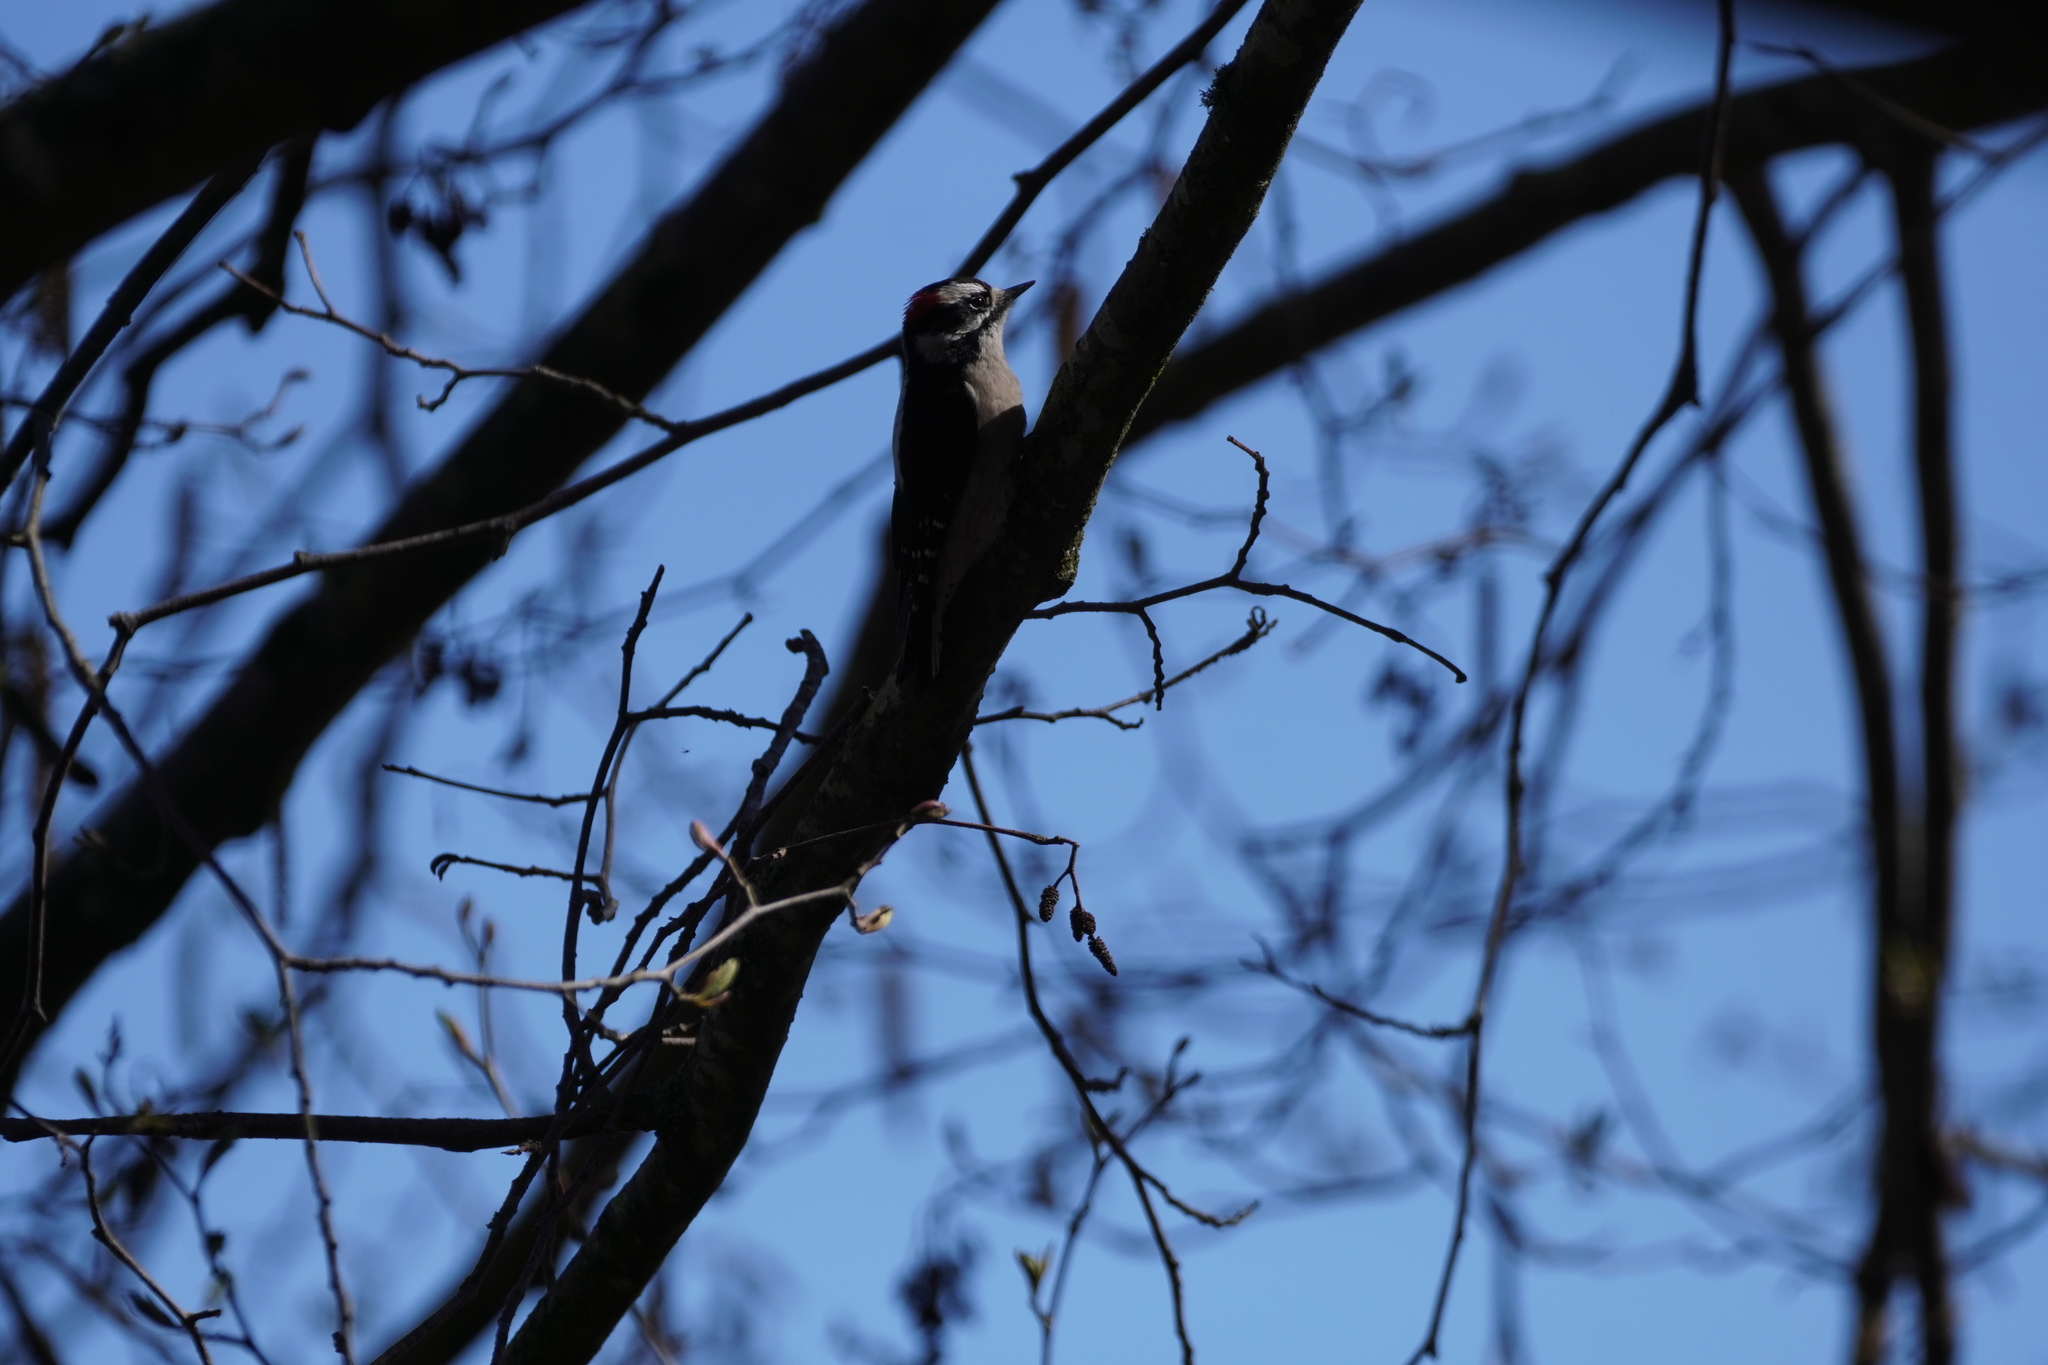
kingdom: Animalia
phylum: Chordata
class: Aves
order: Piciformes
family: Picidae
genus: Dryobates
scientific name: Dryobates pubescens
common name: Downy woodpecker
